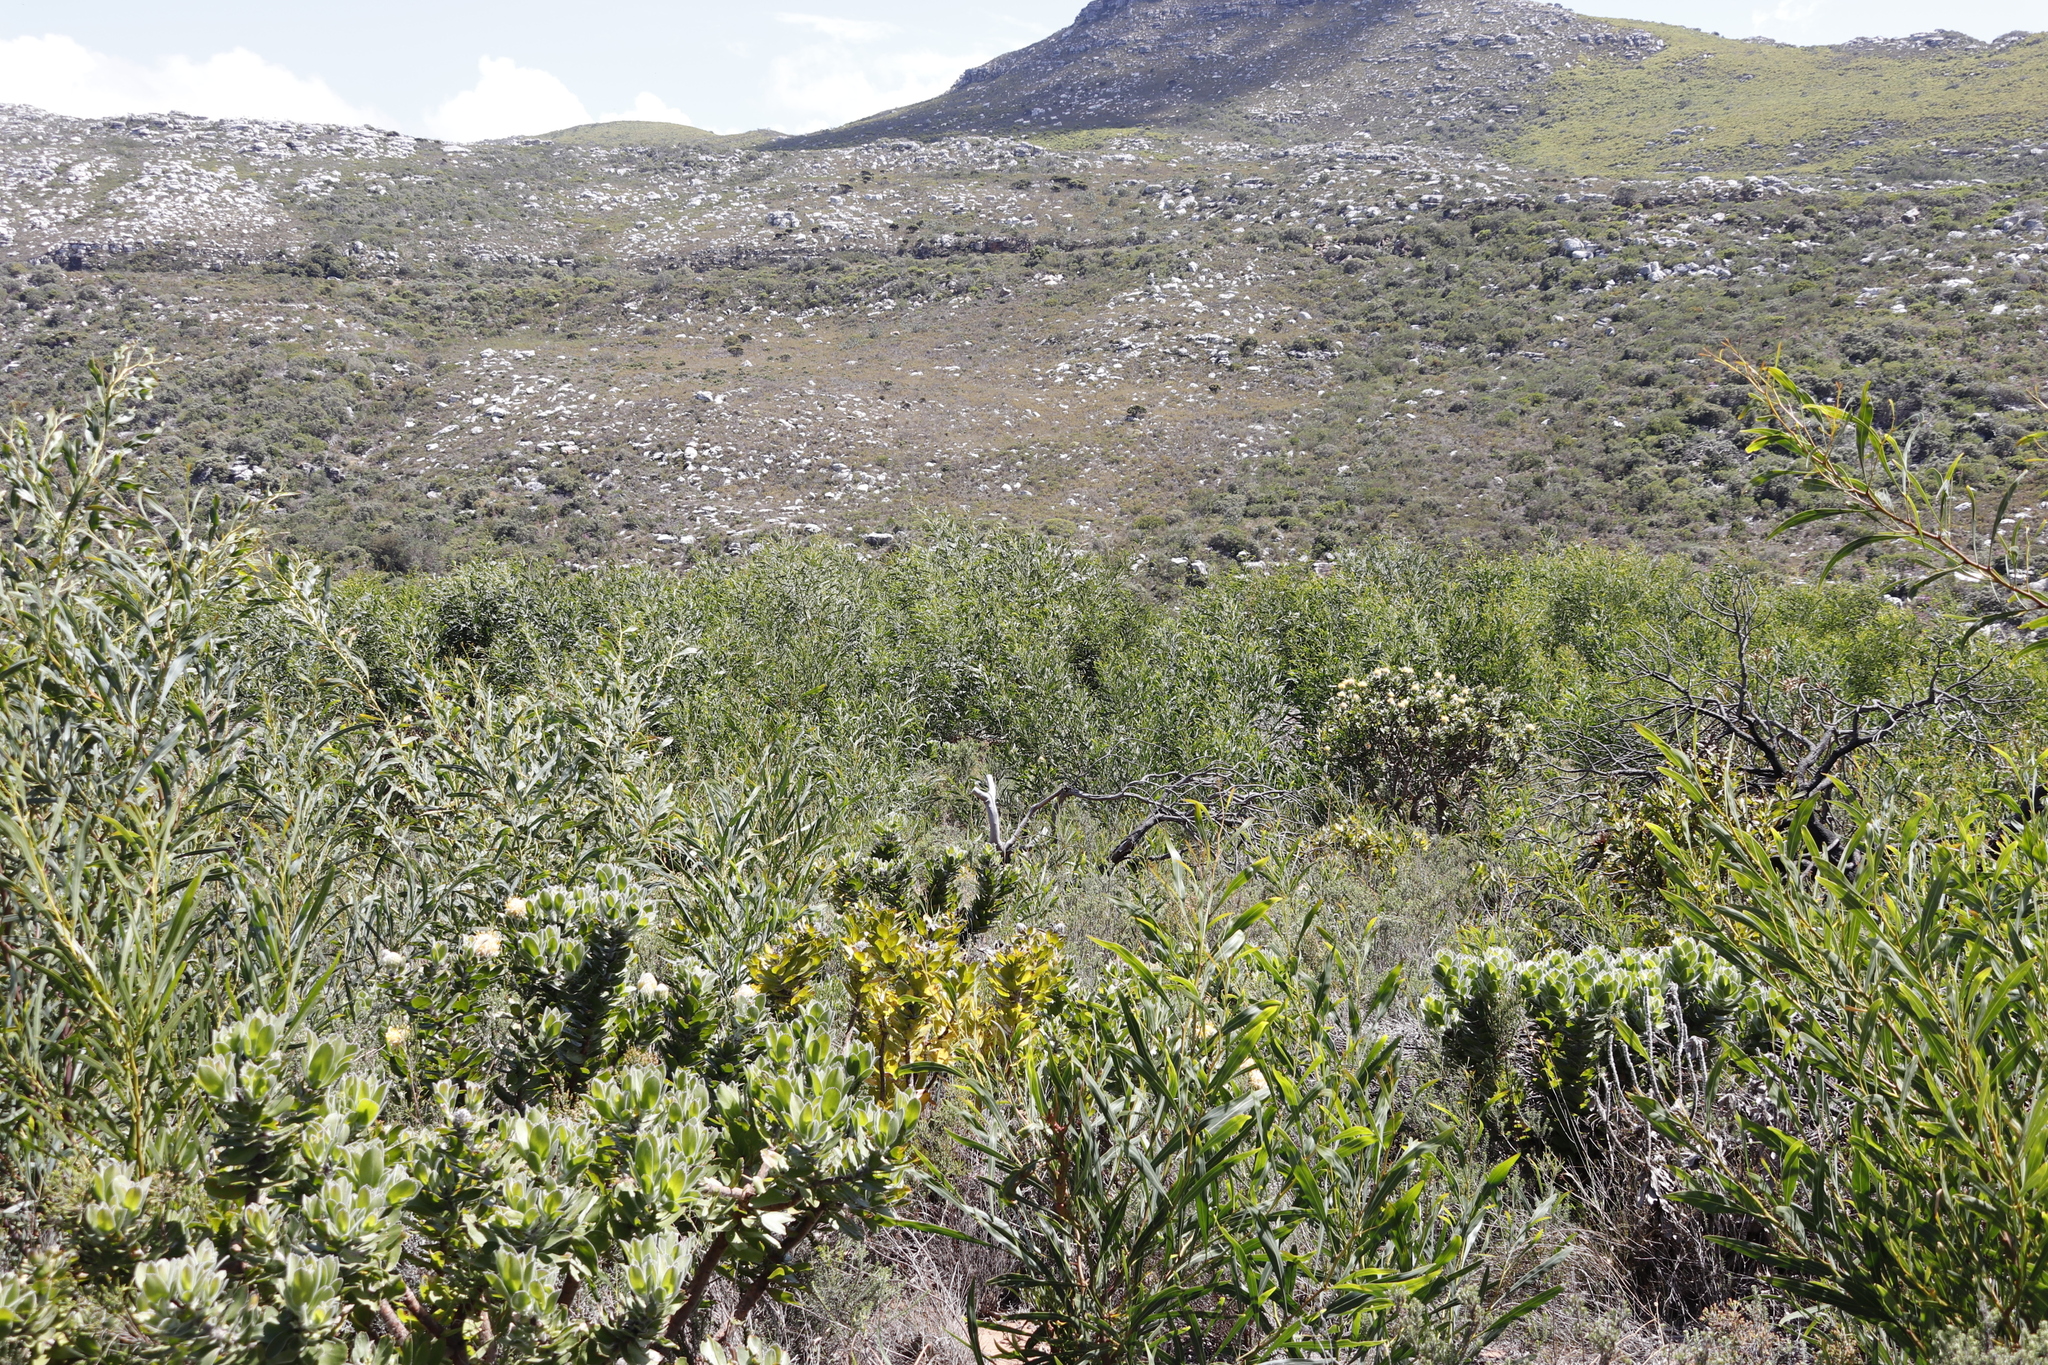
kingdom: Plantae
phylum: Tracheophyta
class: Magnoliopsida
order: Fabales
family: Fabaceae
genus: Acacia
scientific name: Acacia saligna
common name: Orange wattle
